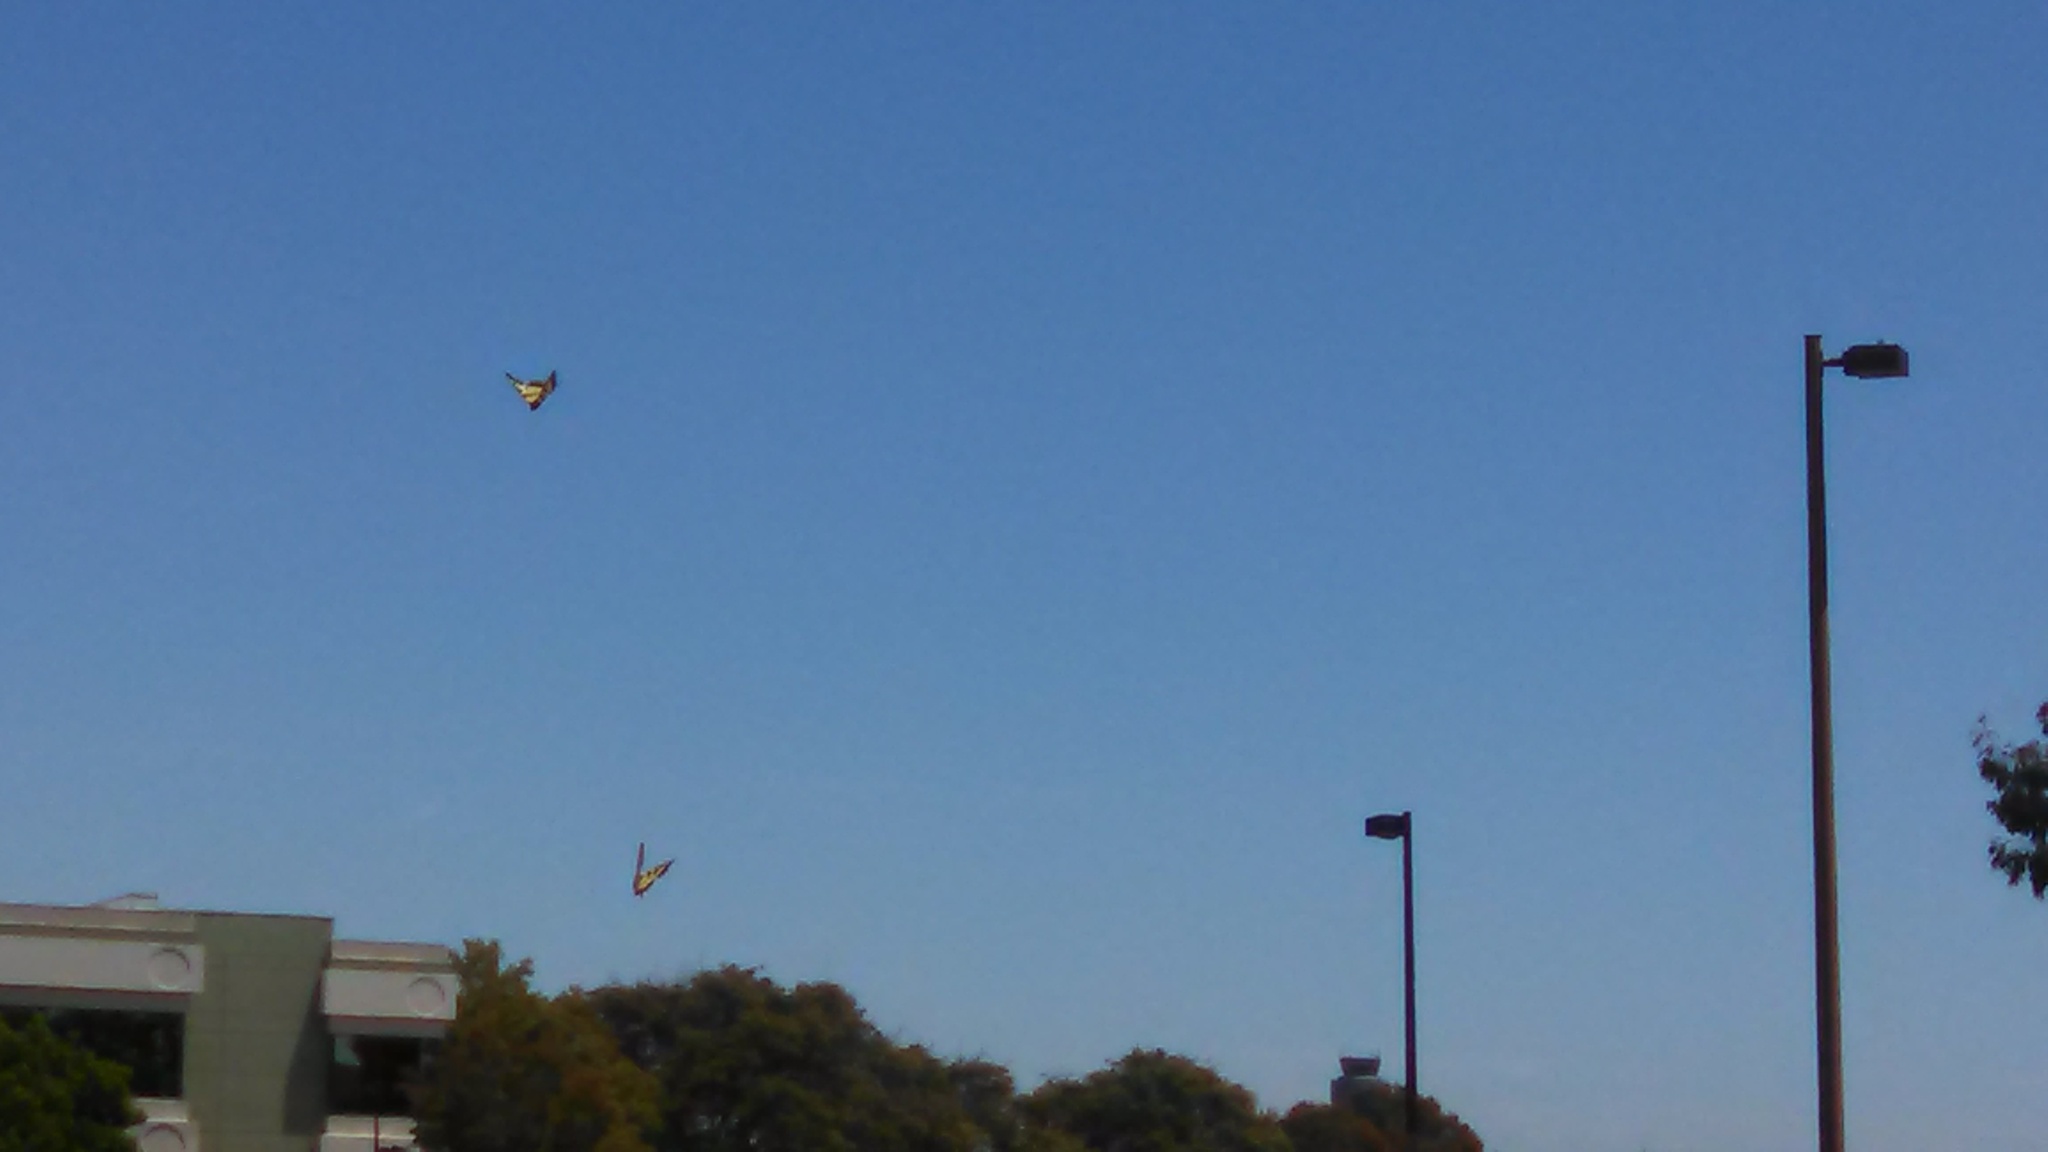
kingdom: Animalia
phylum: Arthropoda
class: Insecta
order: Lepidoptera
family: Papilionidae
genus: Papilio
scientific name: Papilio rutulus
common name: Western tiger swallowtail
